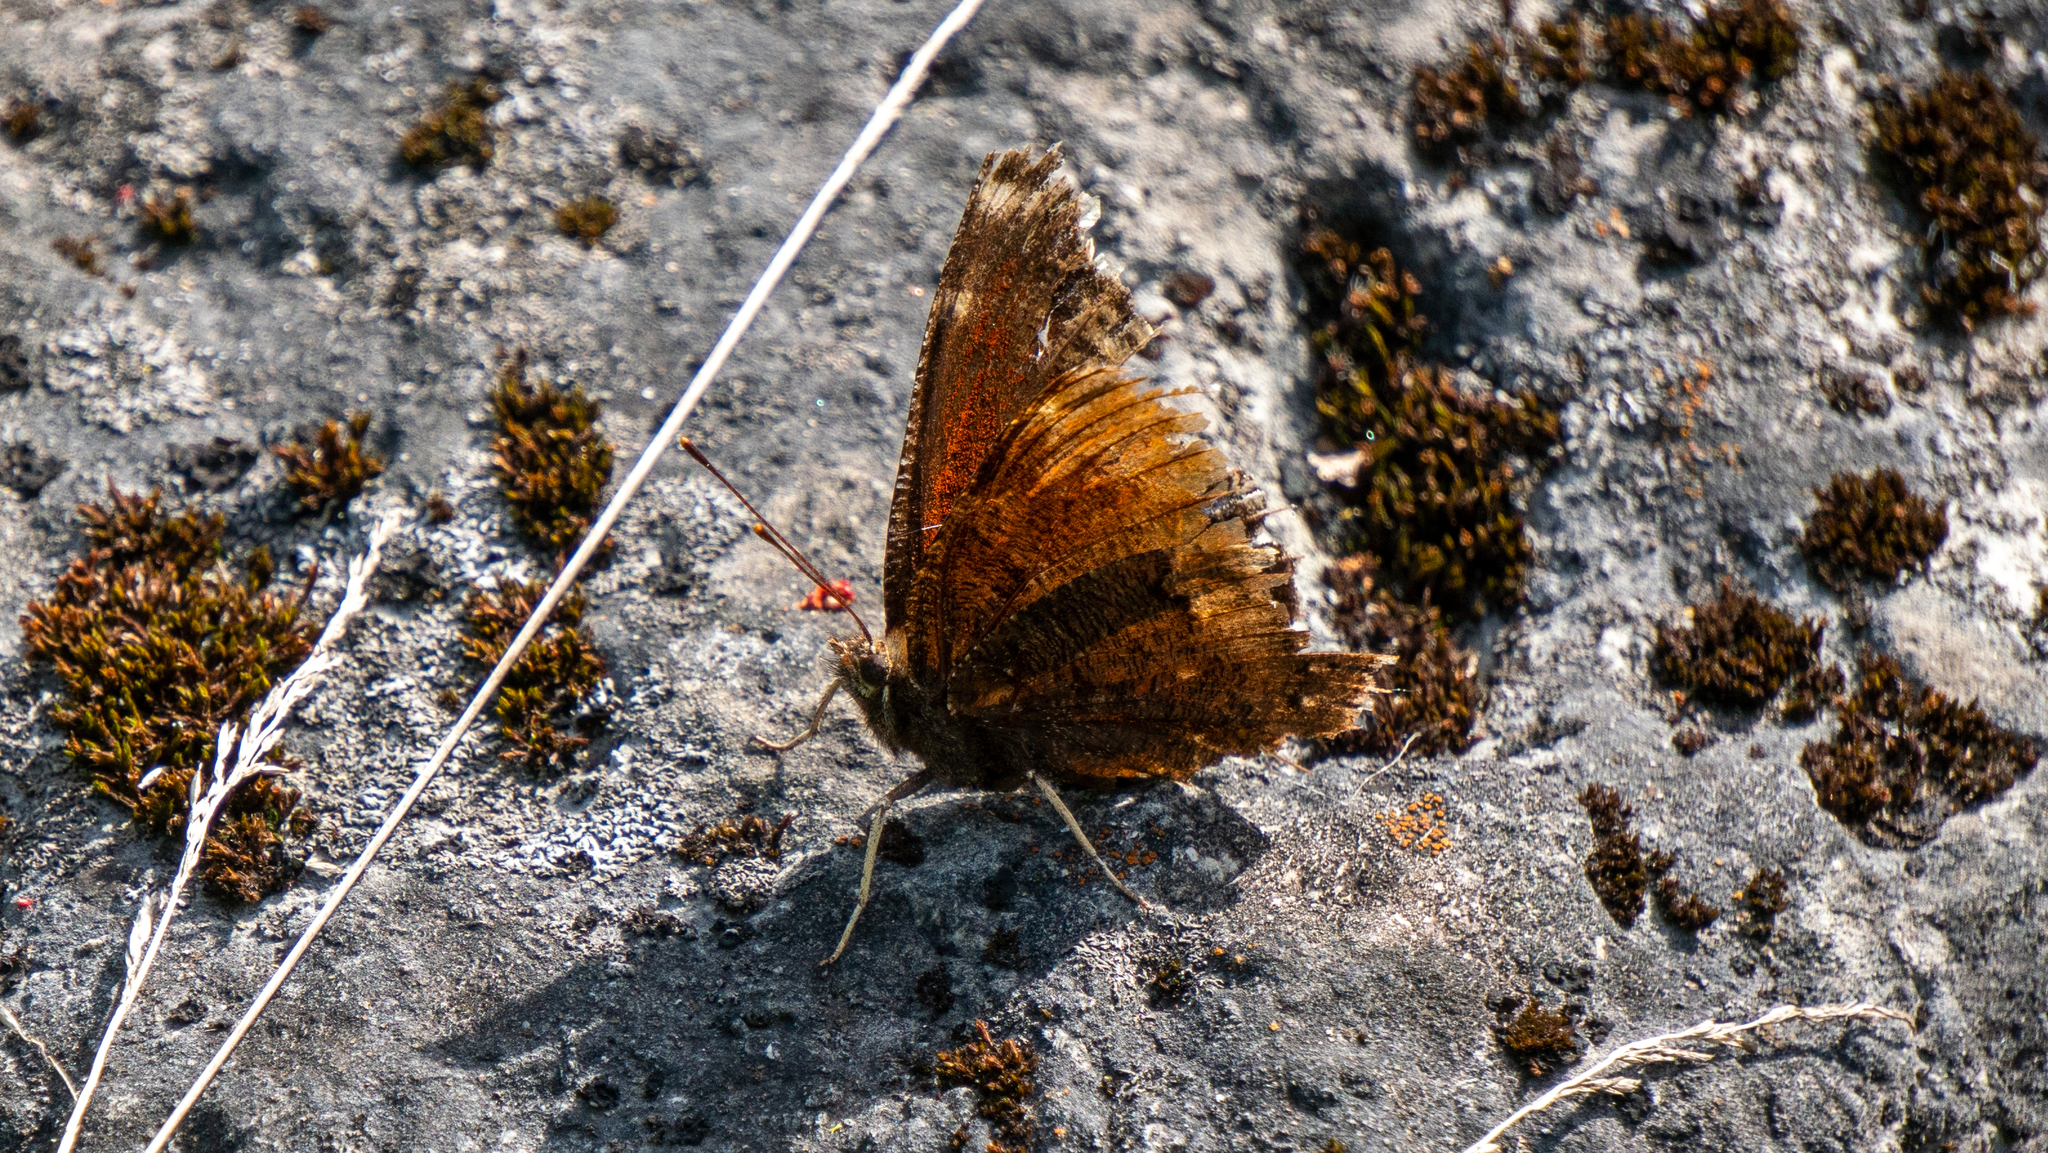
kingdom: Animalia
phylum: Arthropoda
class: Insecta
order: Lepidoptera
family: Nymphalidae
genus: Nymphalis
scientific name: Nymphalis antiopa
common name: Camberwell beauty
